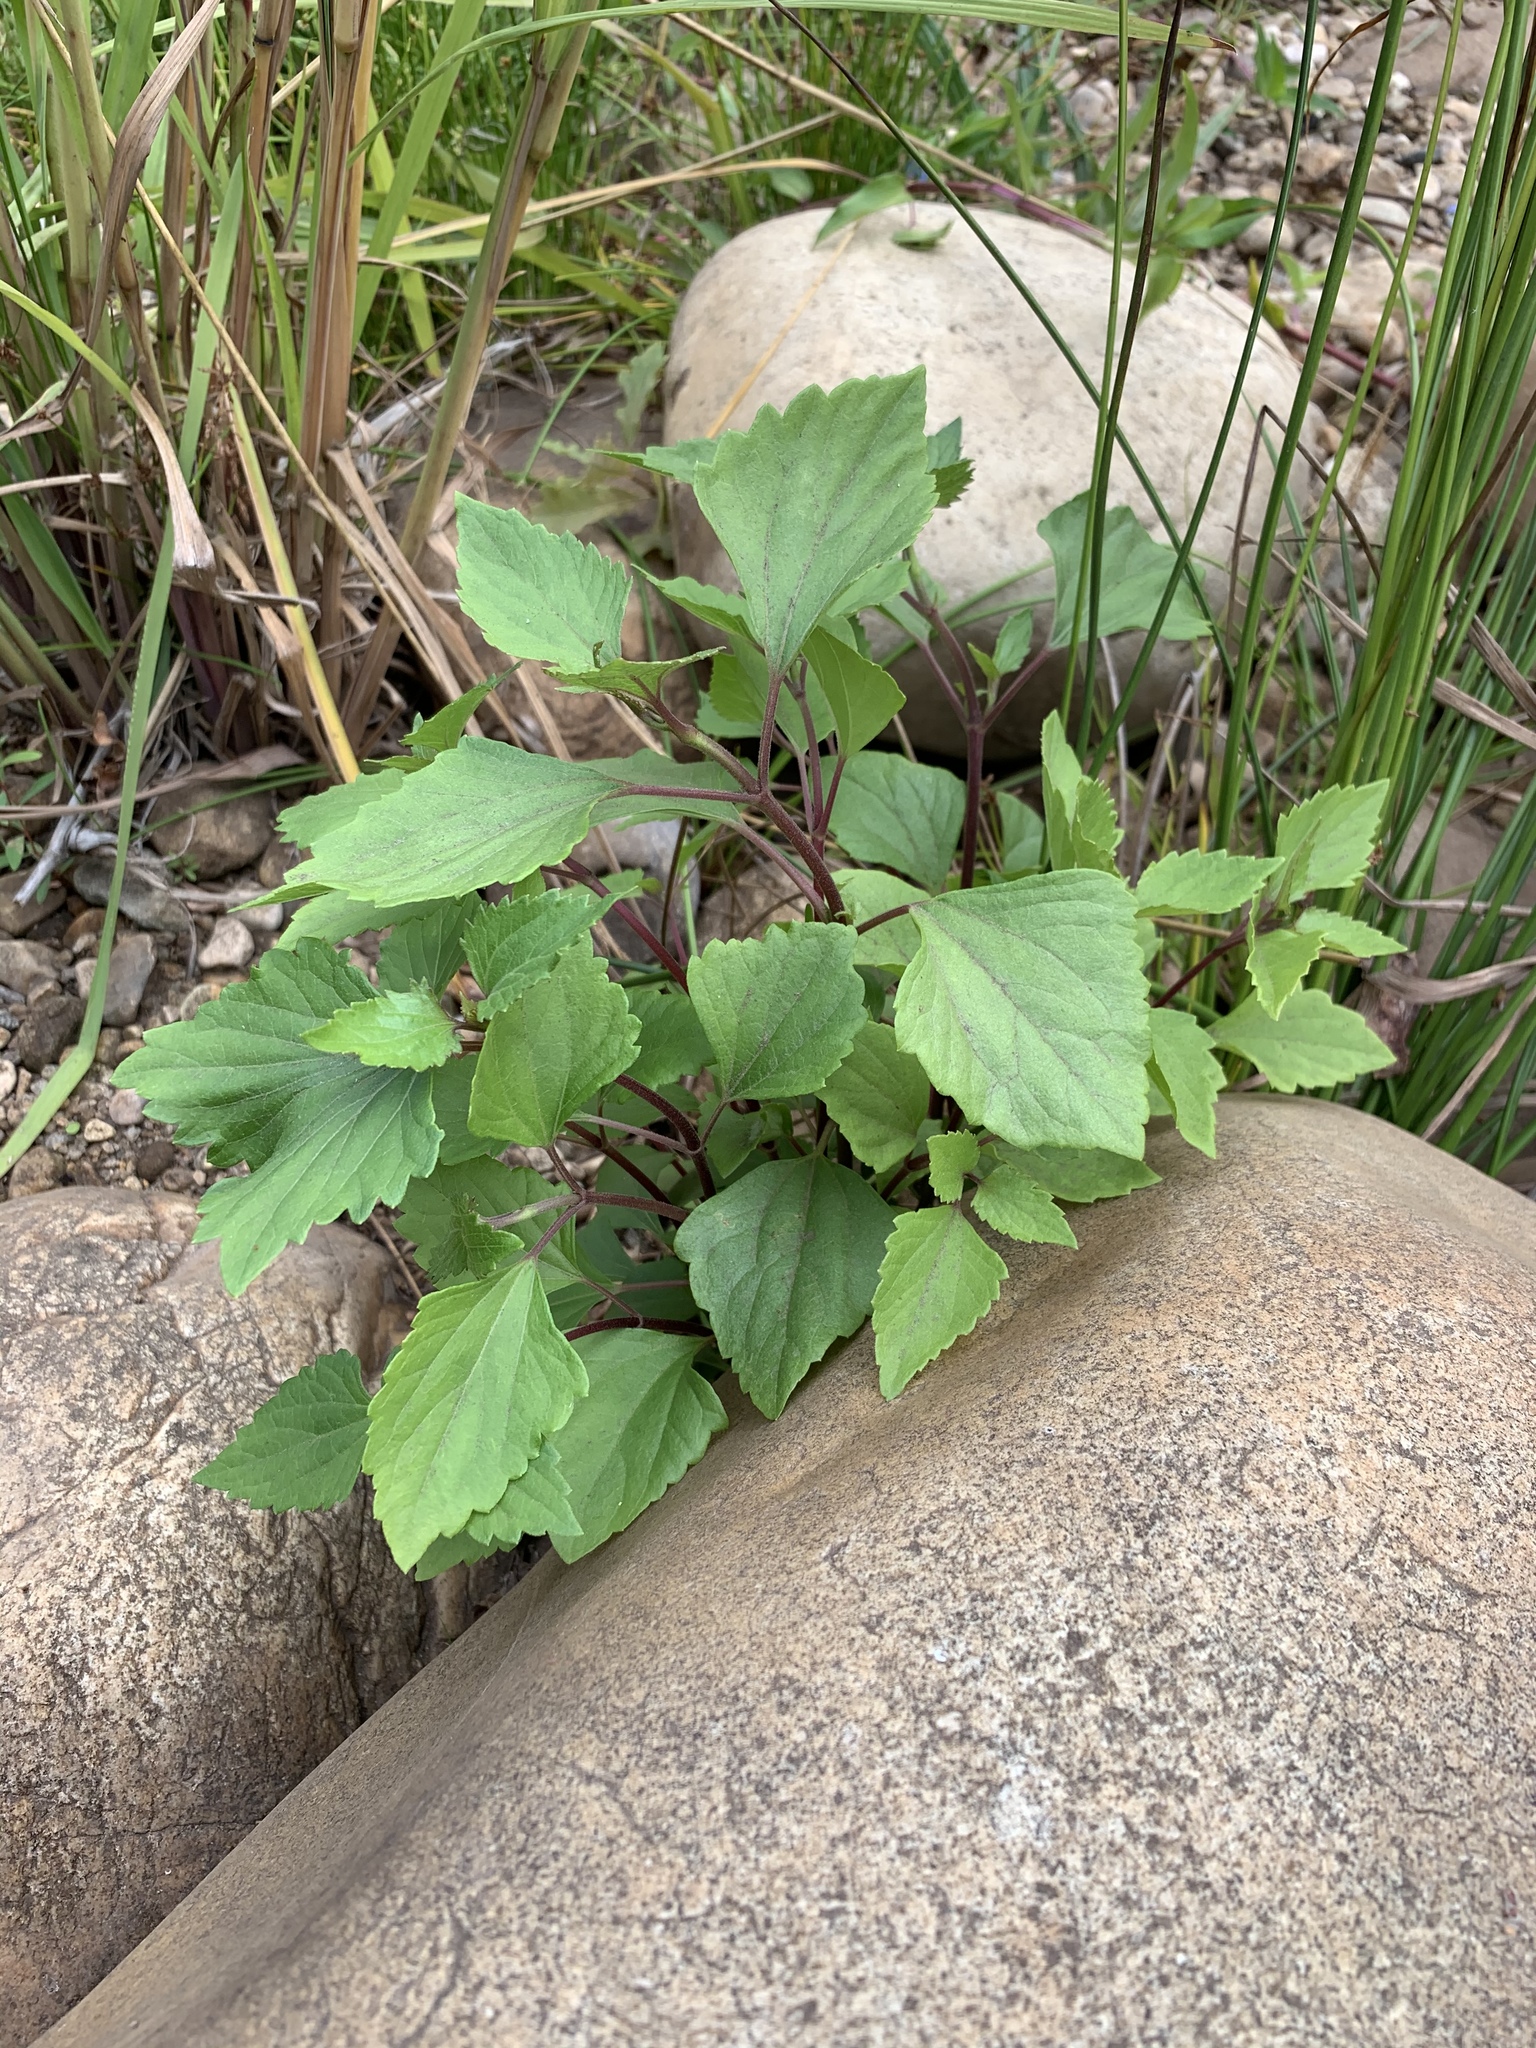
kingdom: Plantae
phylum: Tracheophyta
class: Magnoliopsida
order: Asterales
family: Asteraceae
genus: Ageratina
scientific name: Ageratina adenophora
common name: Sticky snakeroot
